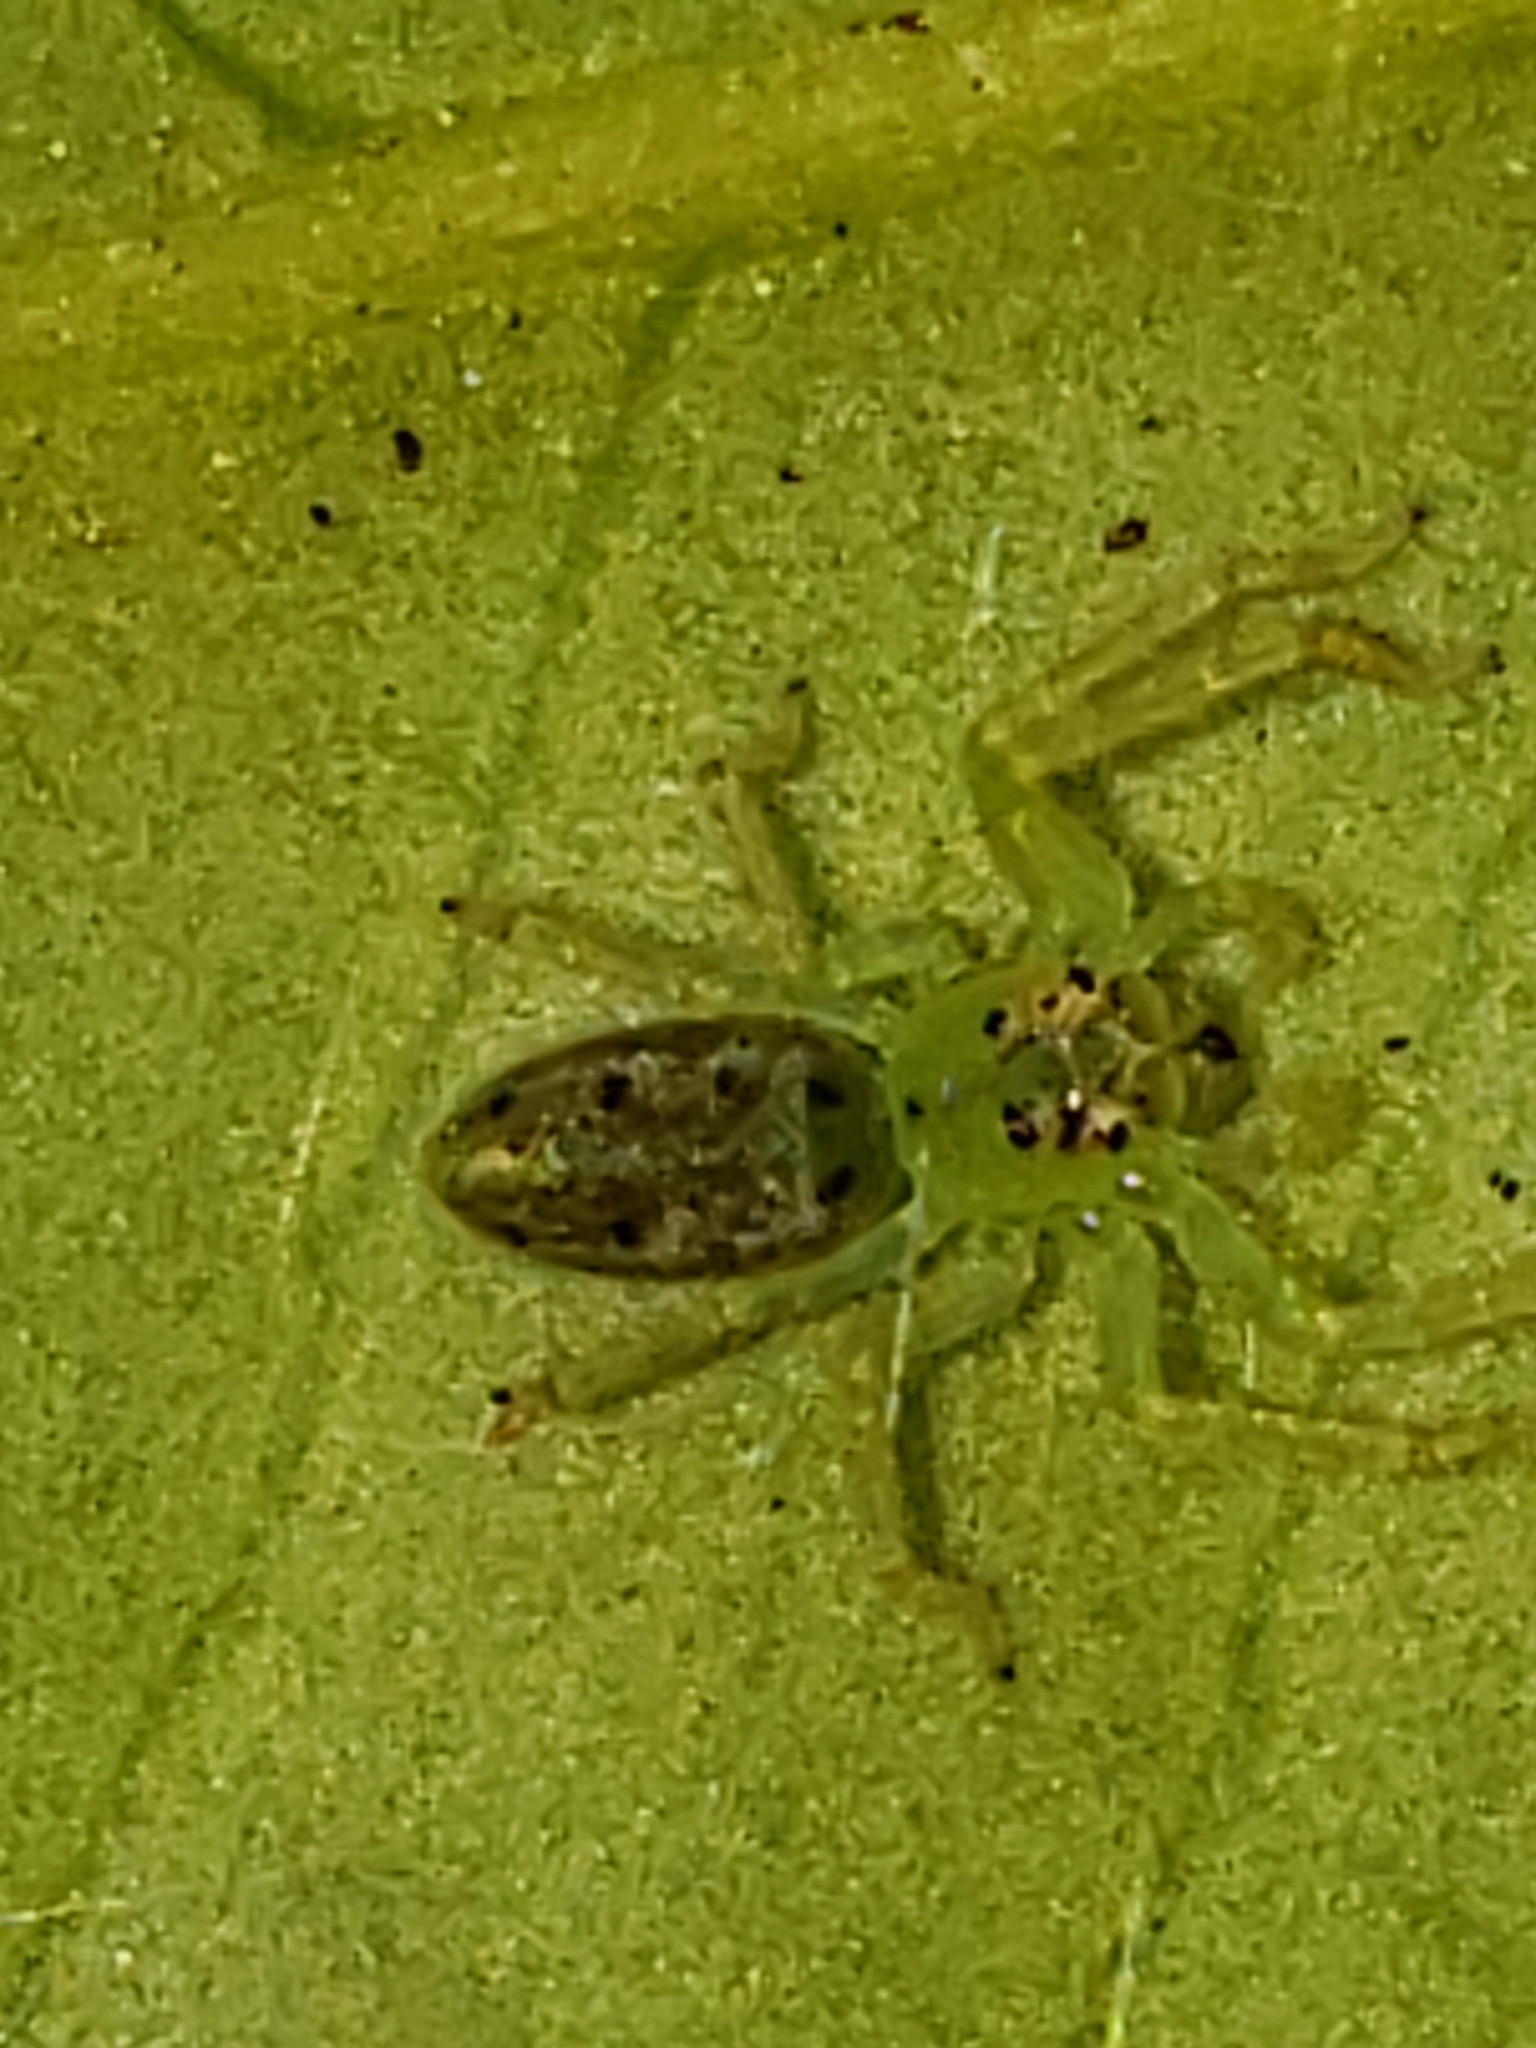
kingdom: Animalia
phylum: Arthropoda
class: Arachnida
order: Araneae
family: Salticidae
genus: Lyssomanes
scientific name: Lyssomanes viridis
